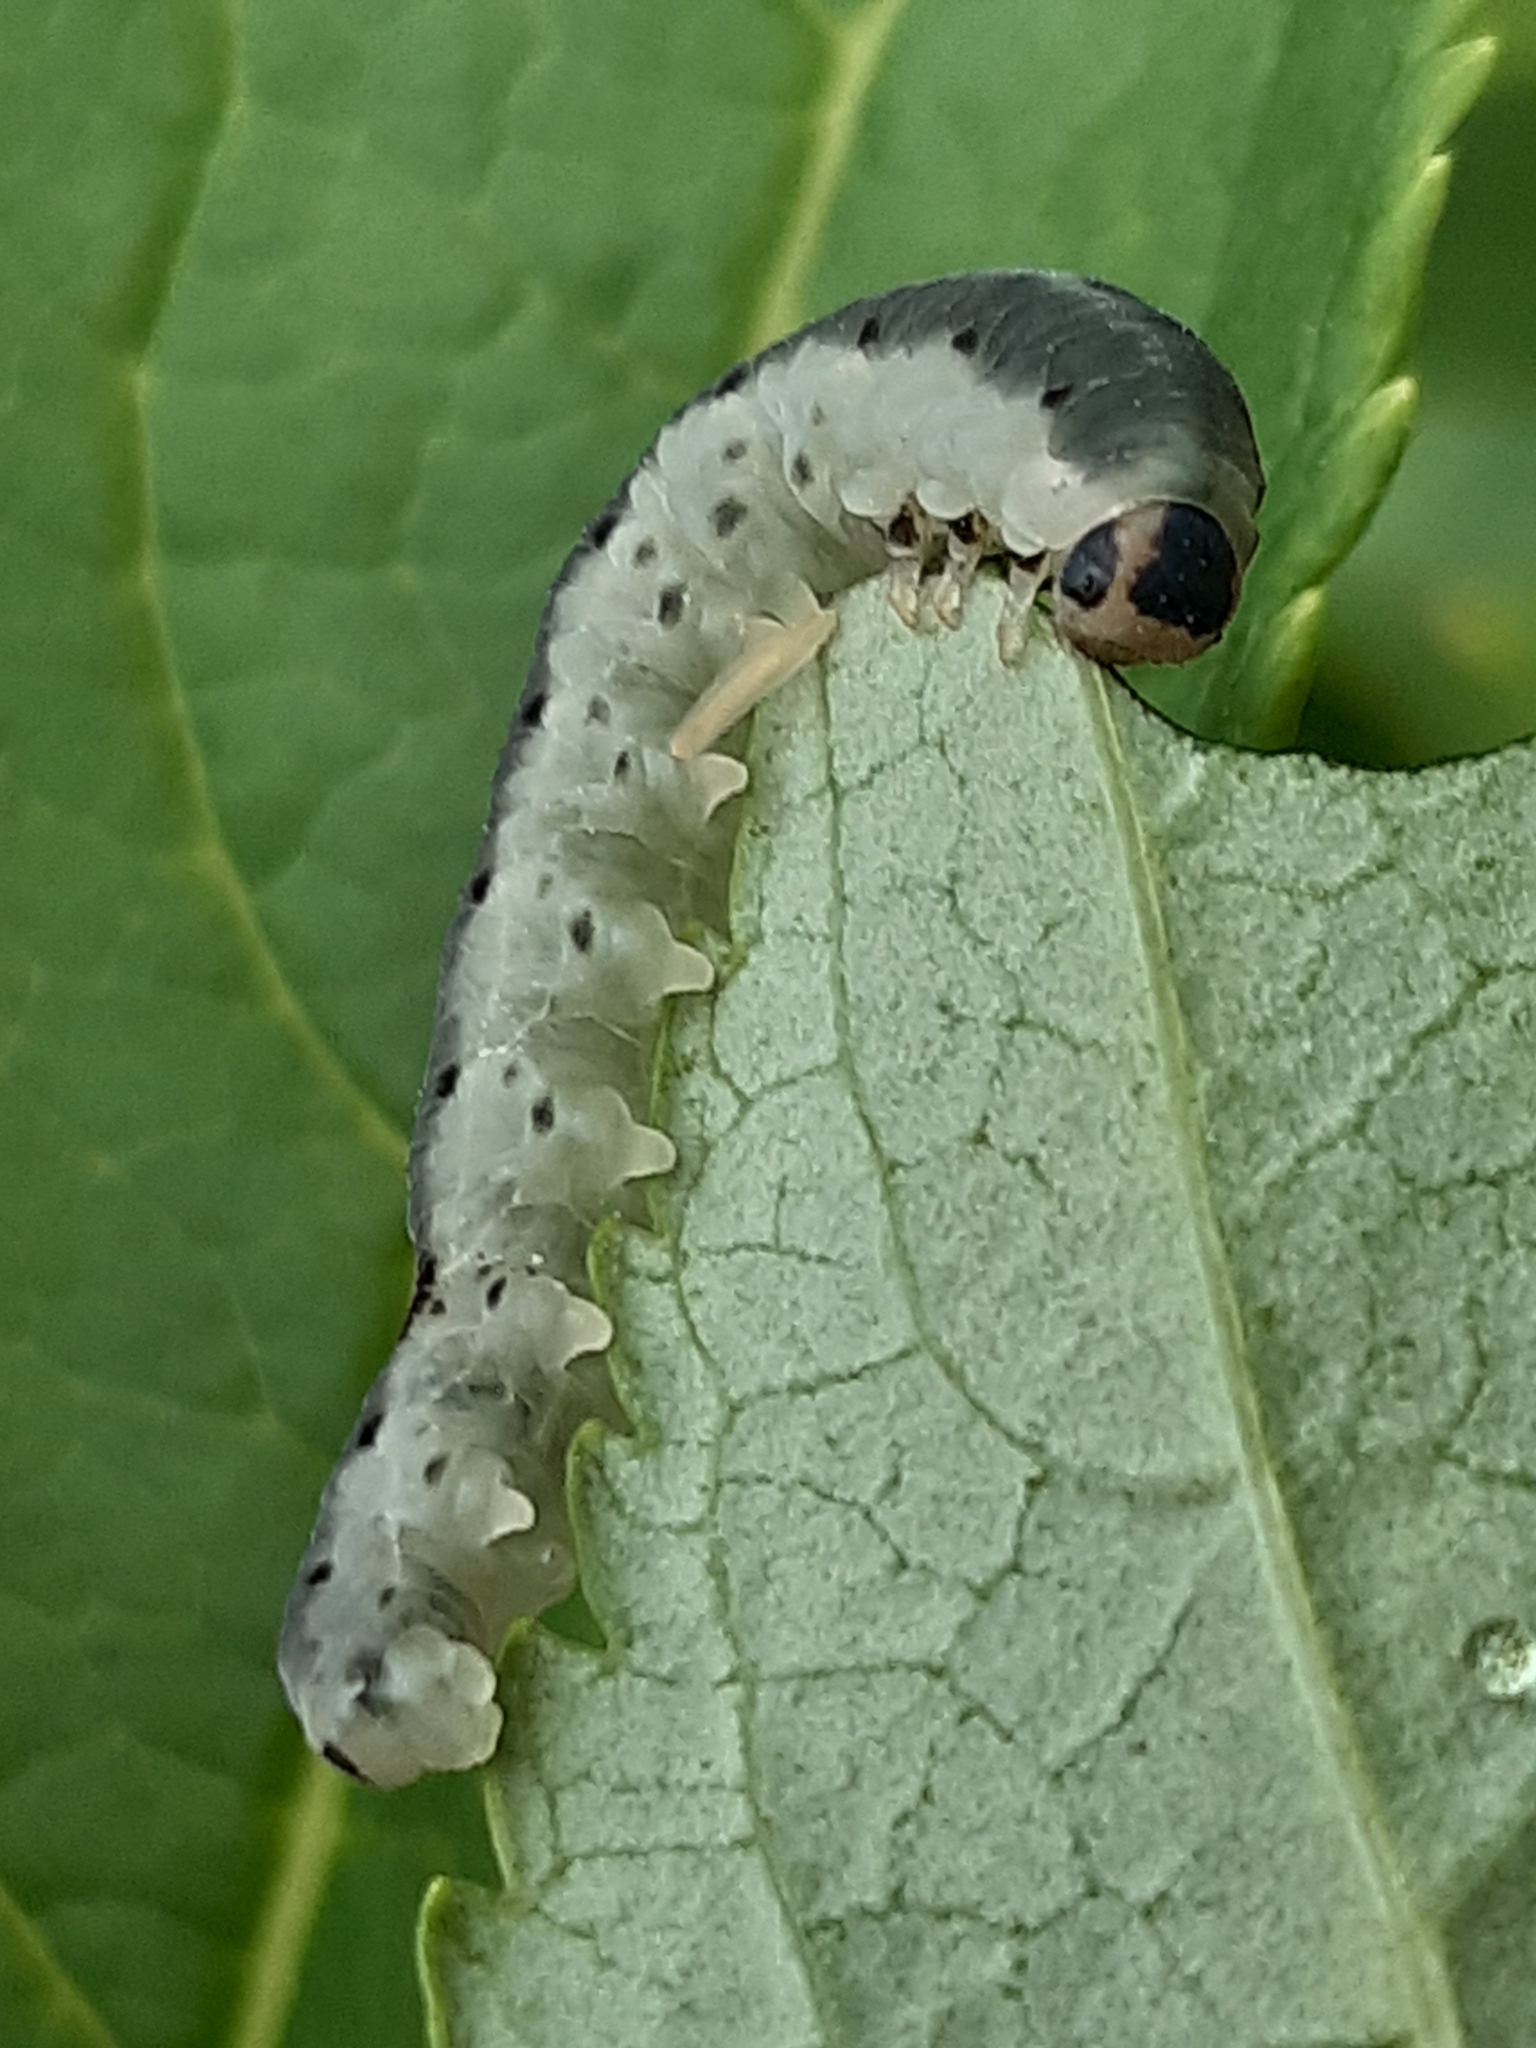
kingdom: Animalia
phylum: Arthropoda
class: Insecta
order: Hymenoptera
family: Tenthredinidae
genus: Macrophya
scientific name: Macrophya alboannulata
